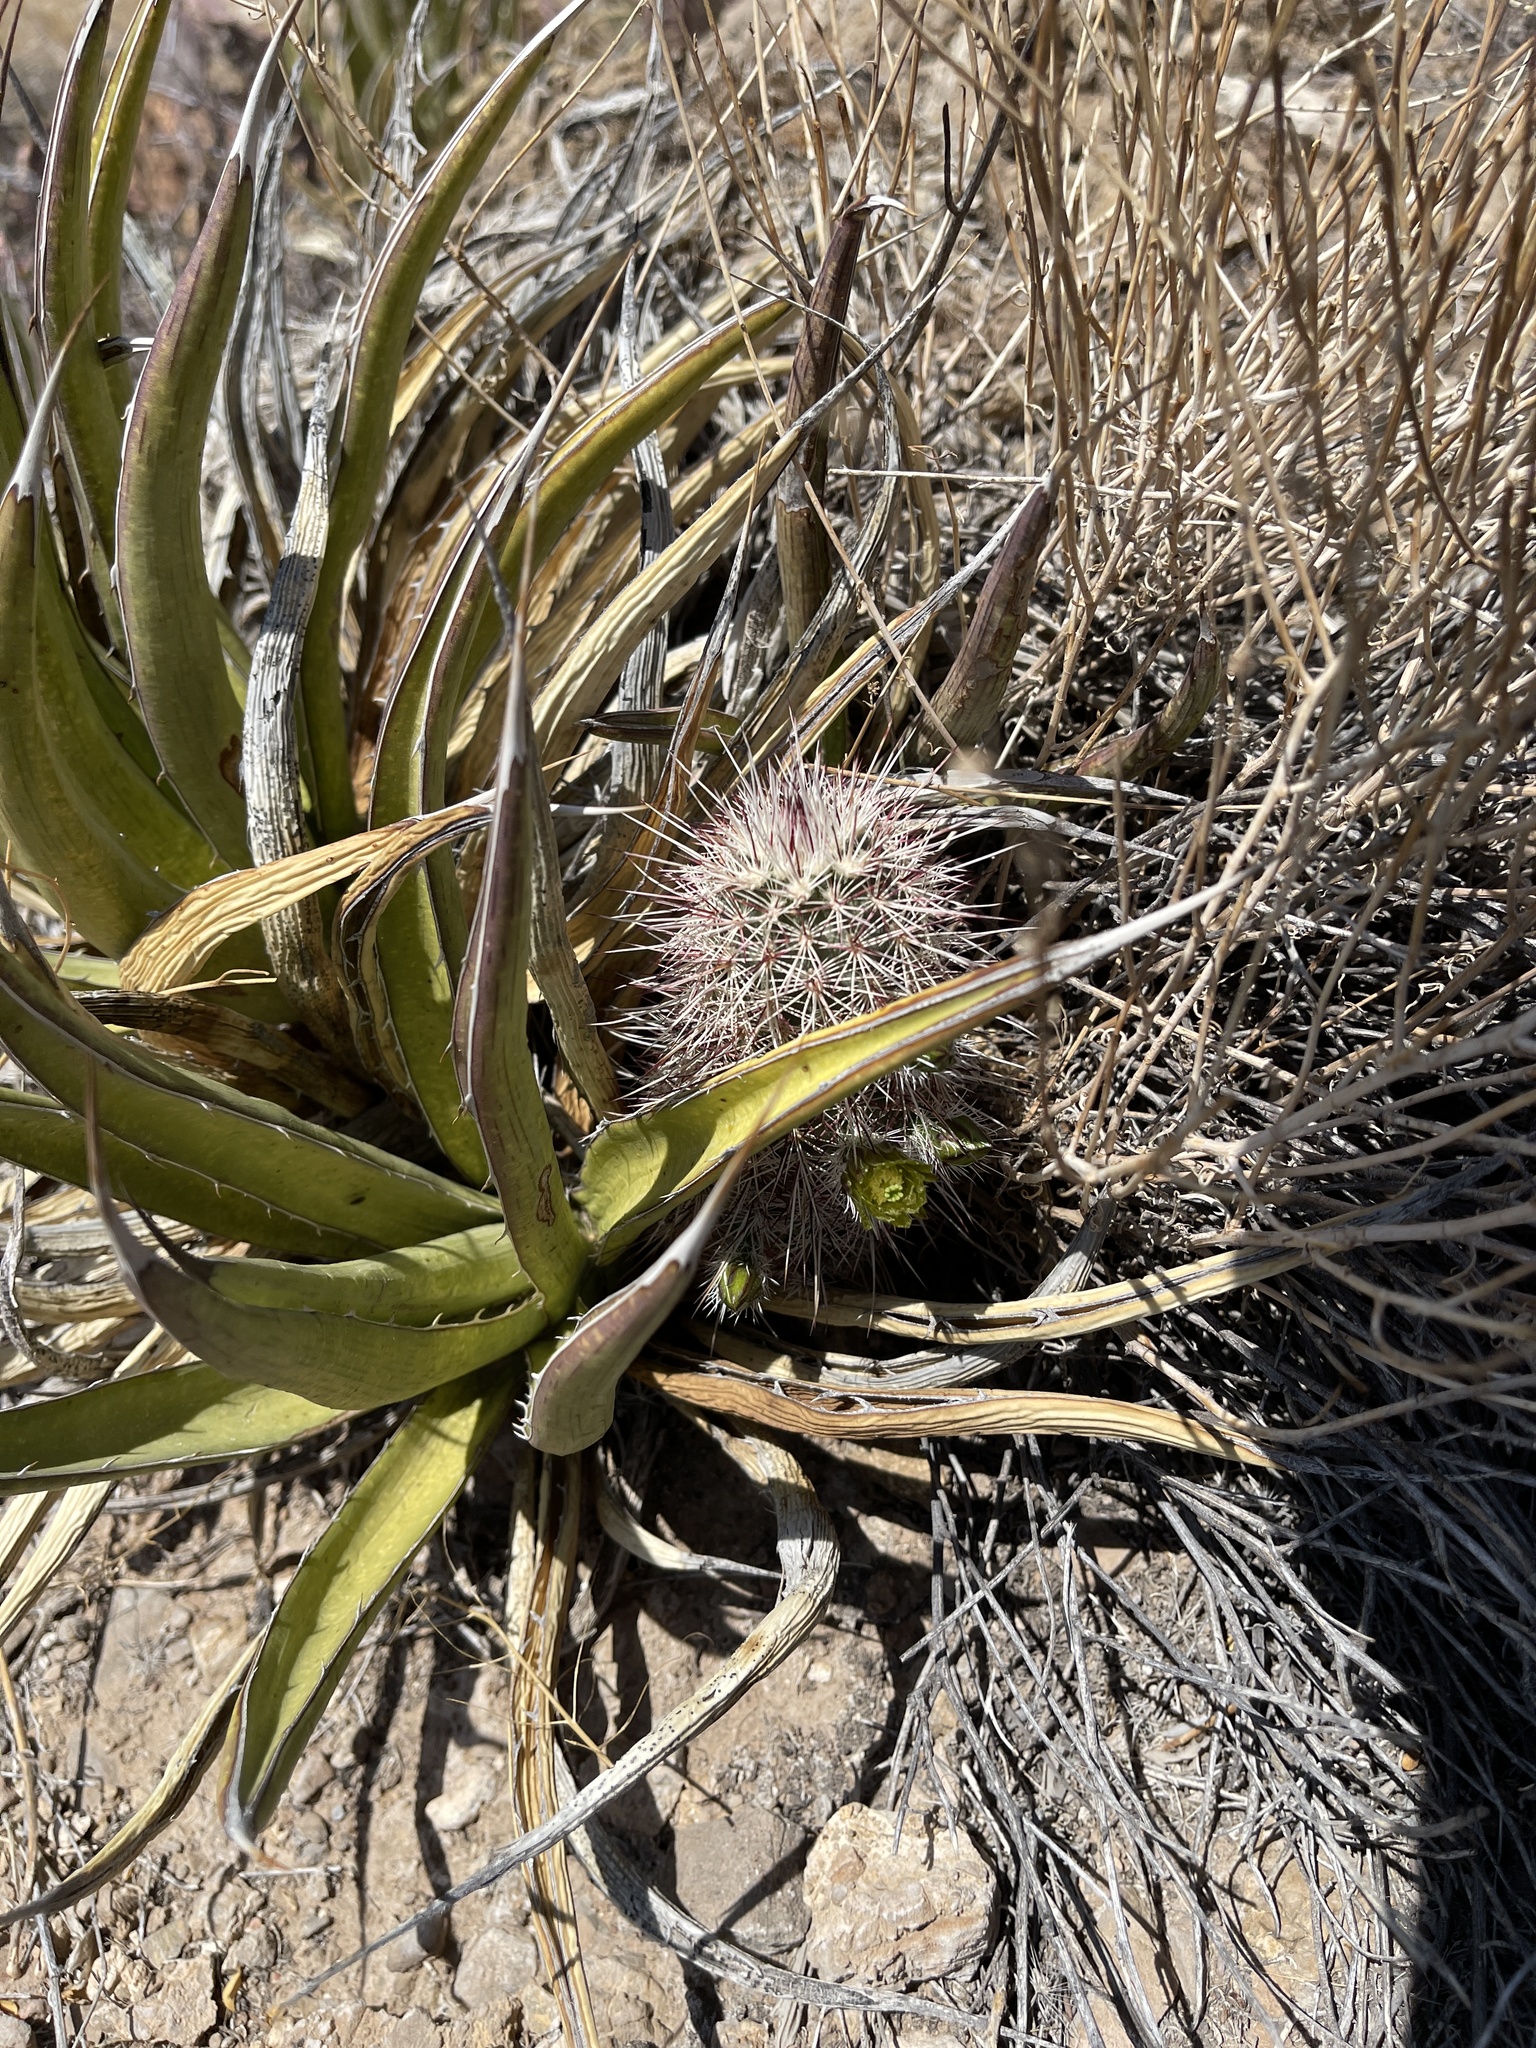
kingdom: Plantae
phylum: Tracheophyta
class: Magnoliopsida
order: Caryophyllales
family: Cactaceae
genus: Echinocereus
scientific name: Echinocereus viridiflorus
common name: Nylon hedgehog cactus
